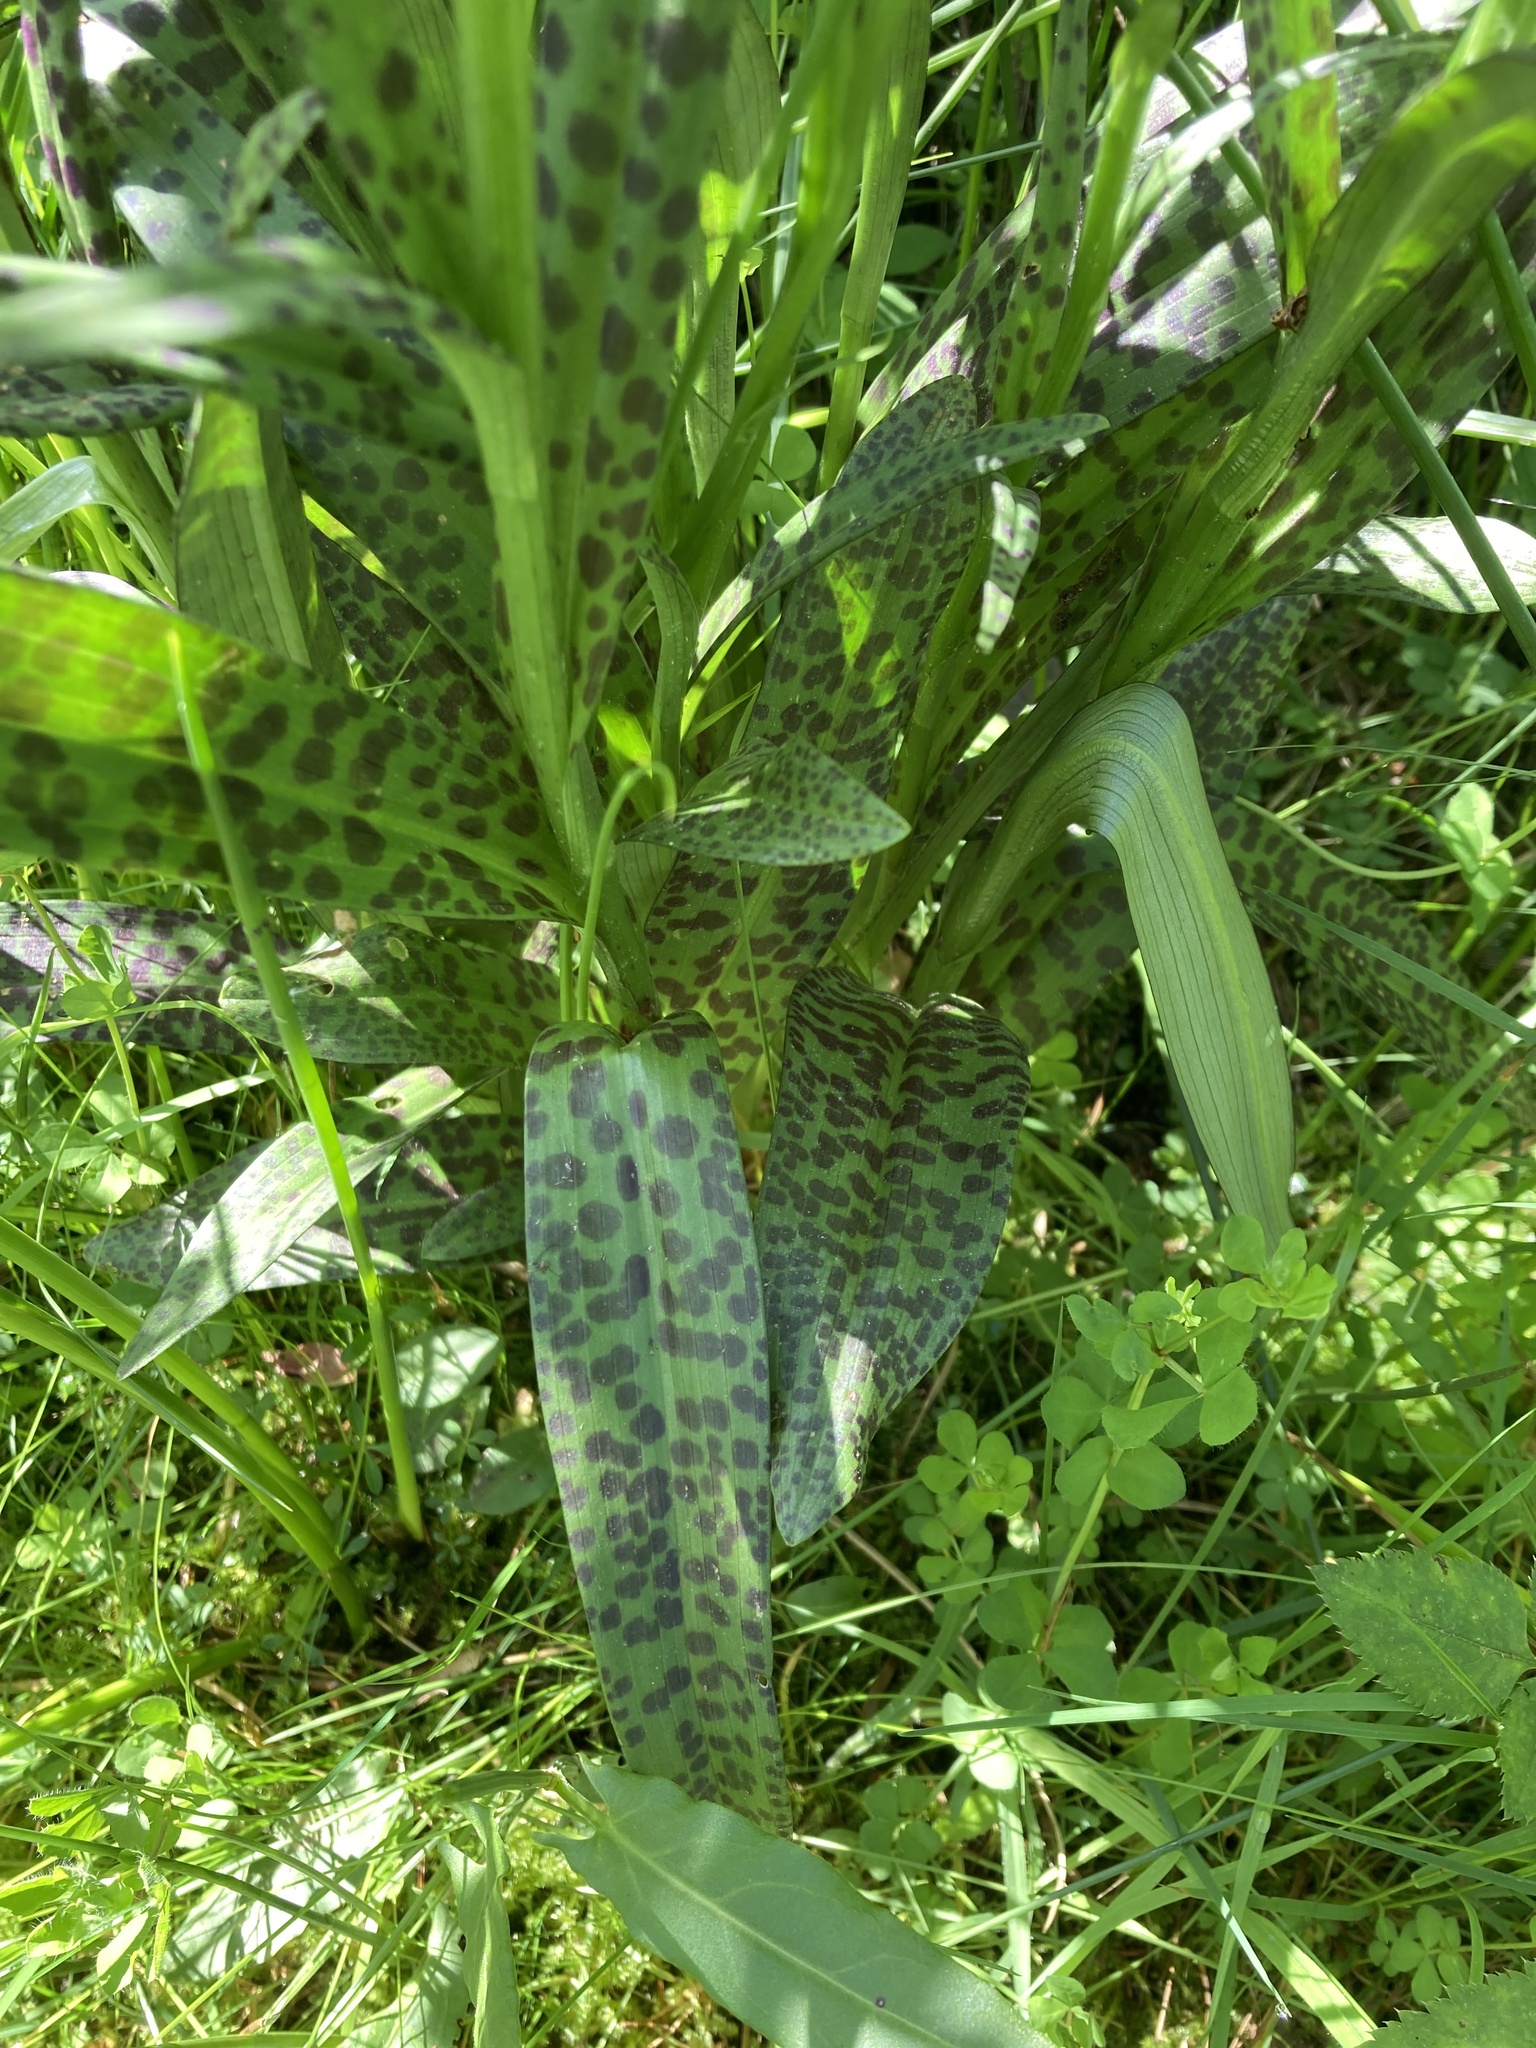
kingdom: Plantae
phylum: Tracheophyta
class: Liliopsida
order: Asparagales
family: Orchidaceae
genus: Dactylorhiza
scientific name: Dactylorhiza maculata
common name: Heath spotted-orchid
